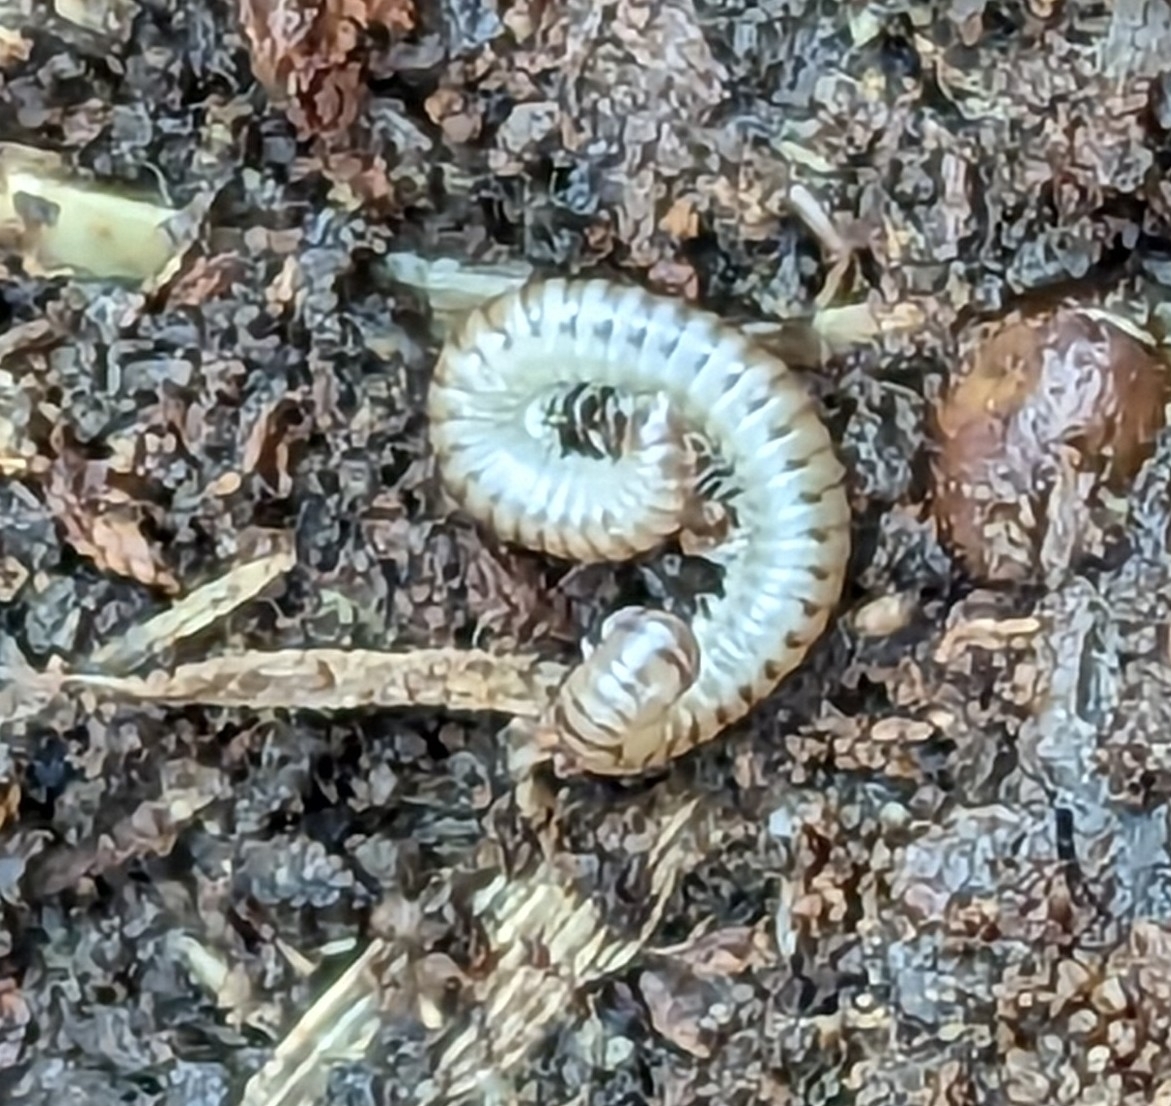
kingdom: Animalia
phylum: Arthropoda
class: Diplopoda
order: Julida
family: Julidae
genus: Cylindroiulus
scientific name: Cylindroiulus punctatus
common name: Blunt-tailed millipede
